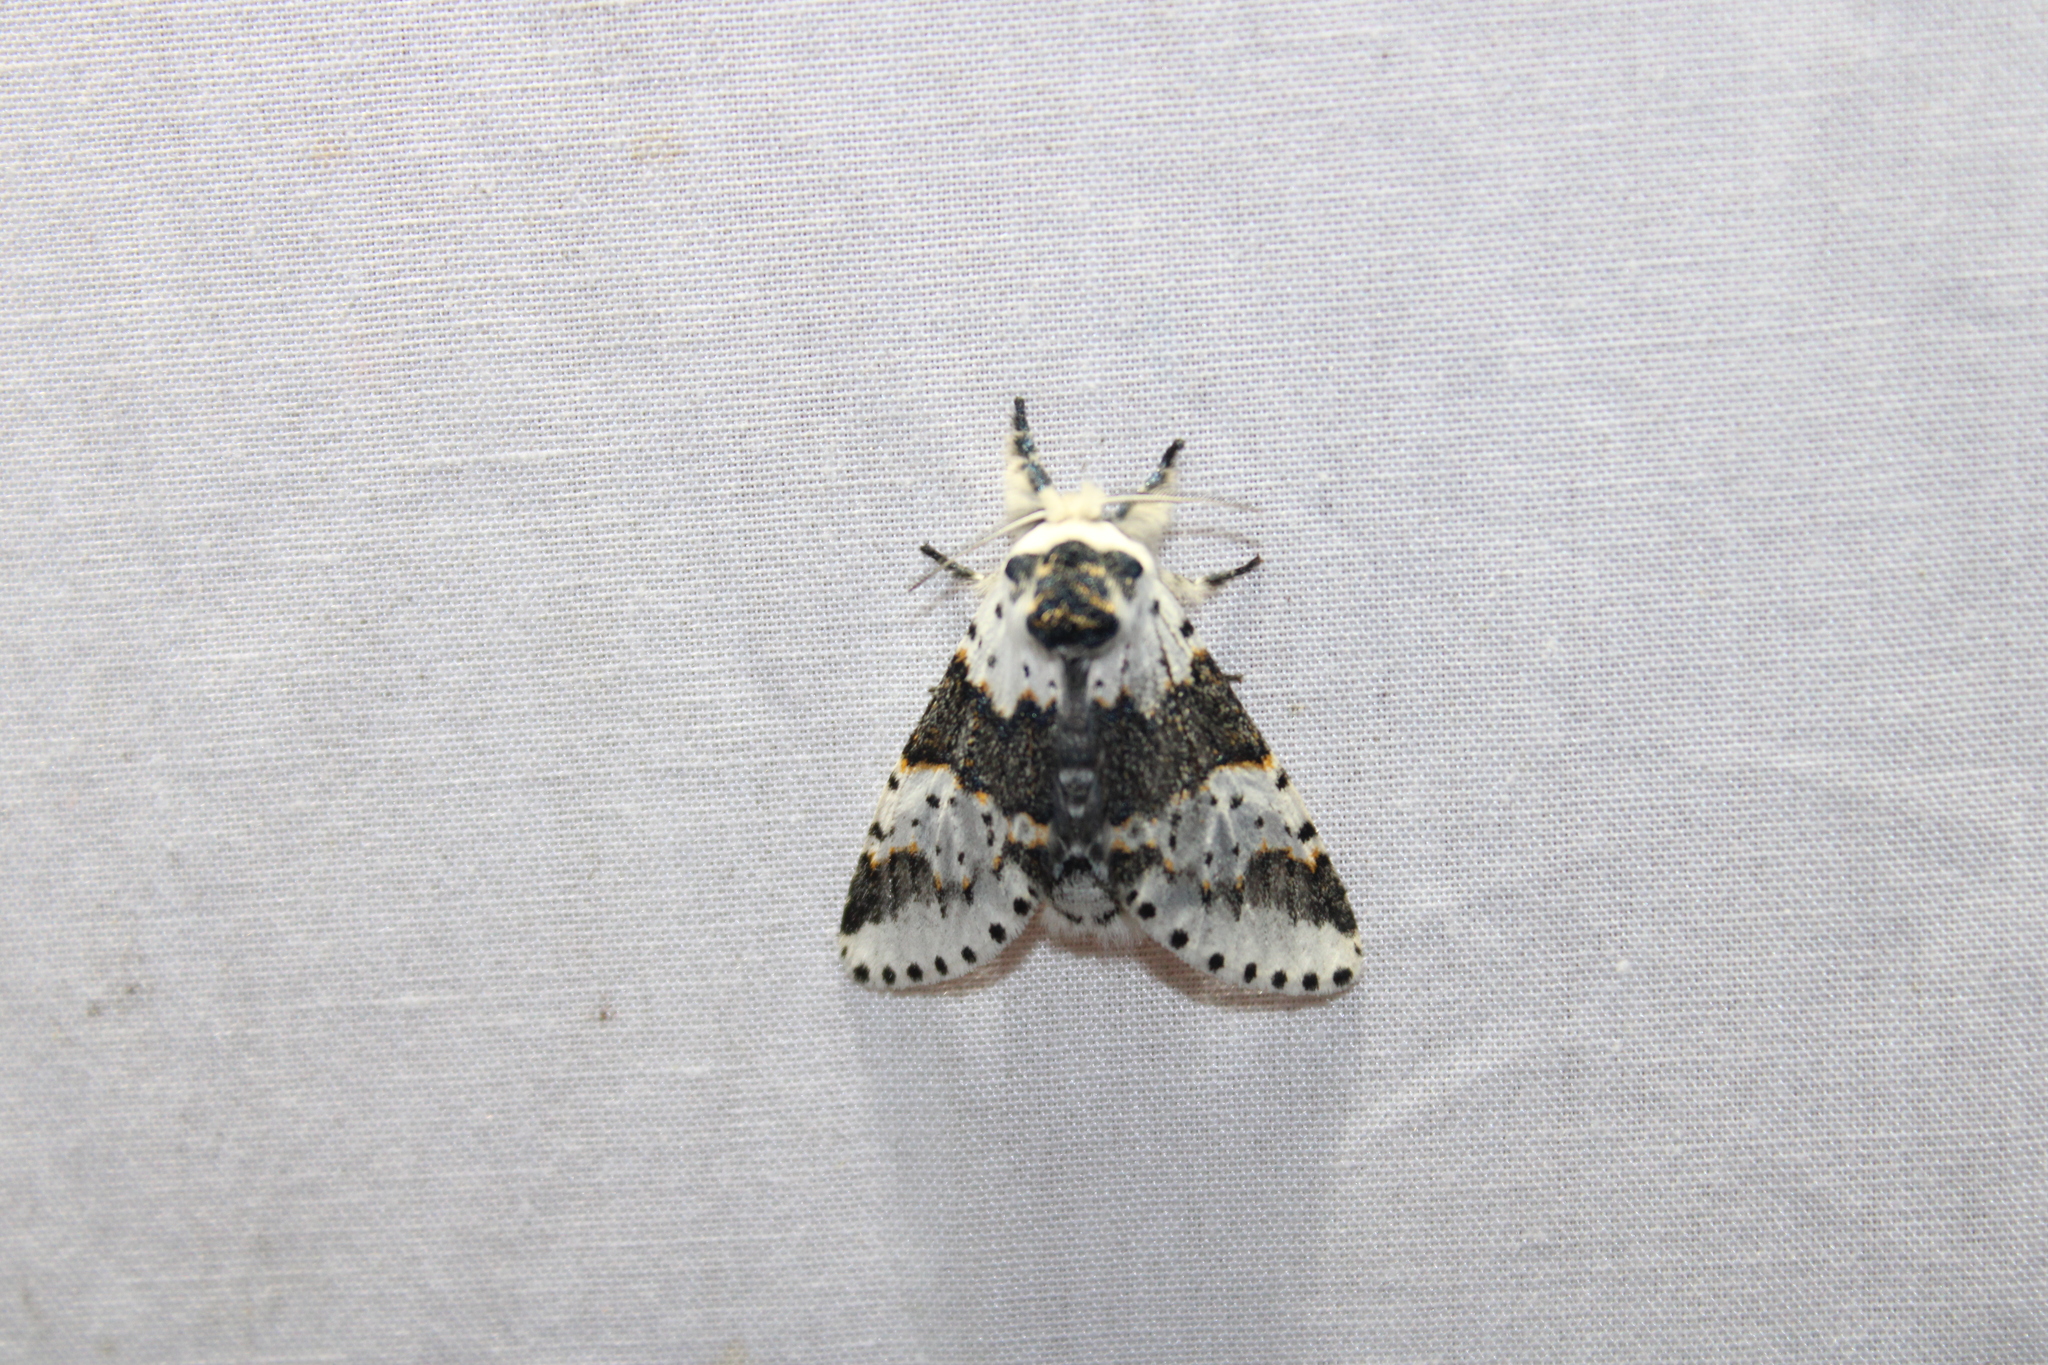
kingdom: Animalia
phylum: Arthropoda
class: Insecta
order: Lepidoptera
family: Notodontidae
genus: Furcula
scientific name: Furcula borealis
